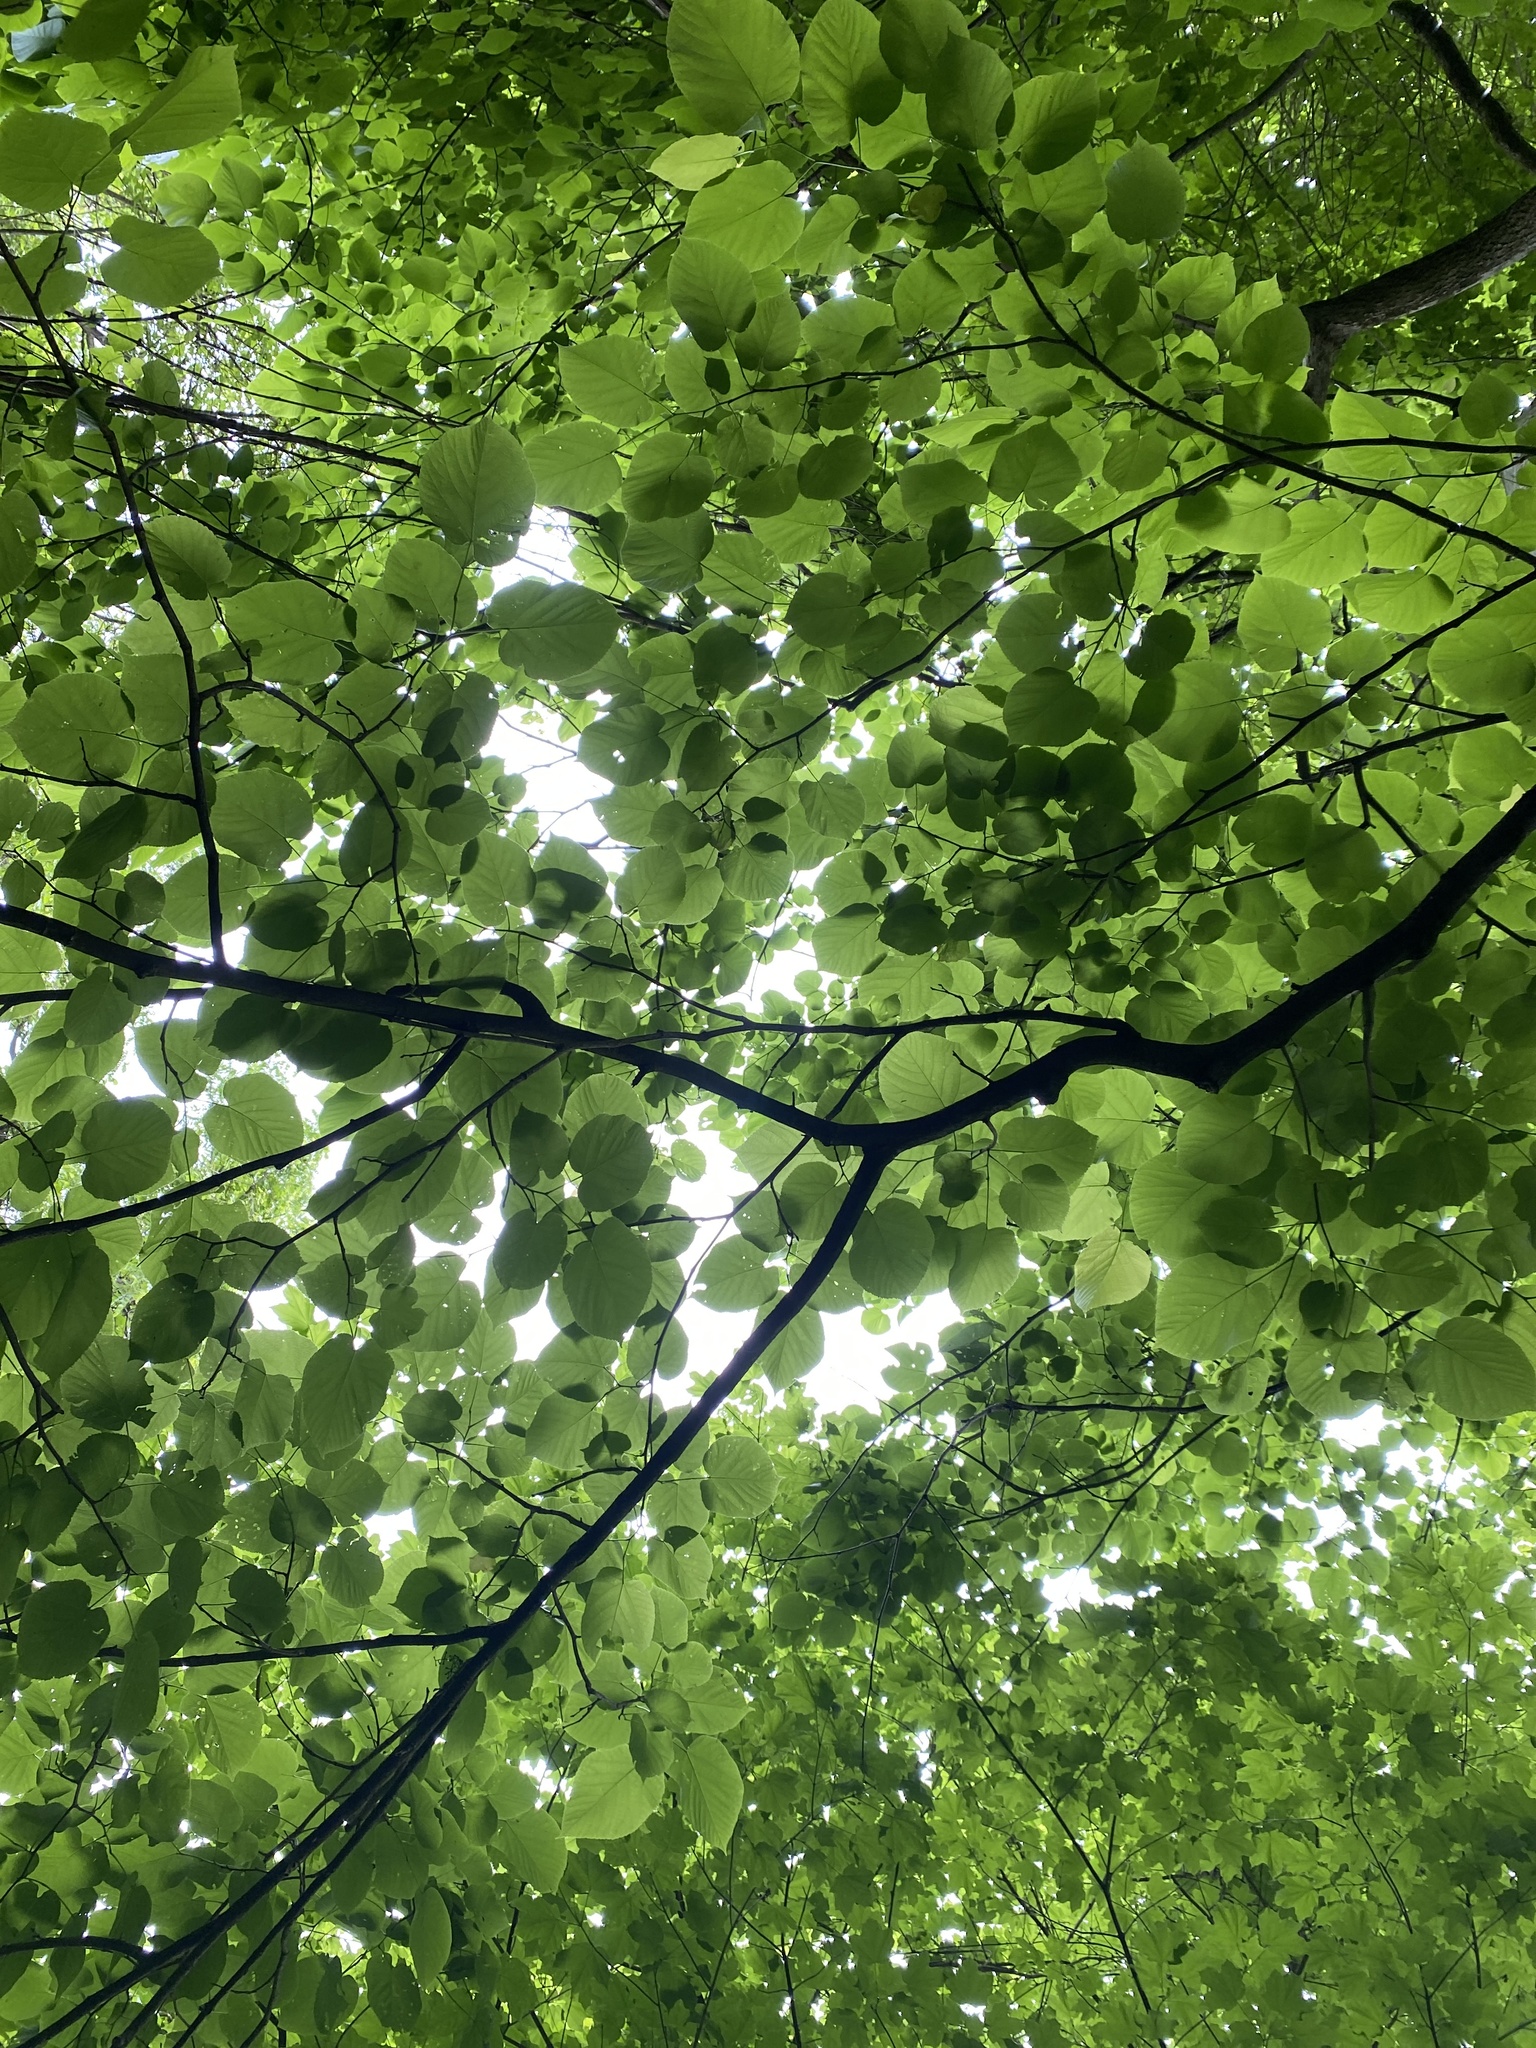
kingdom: Plantae
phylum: Tracheophyta
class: Magnoliopsida
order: Malvales
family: Malvaceae
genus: Tilia
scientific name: Tilia americana
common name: Basswood
